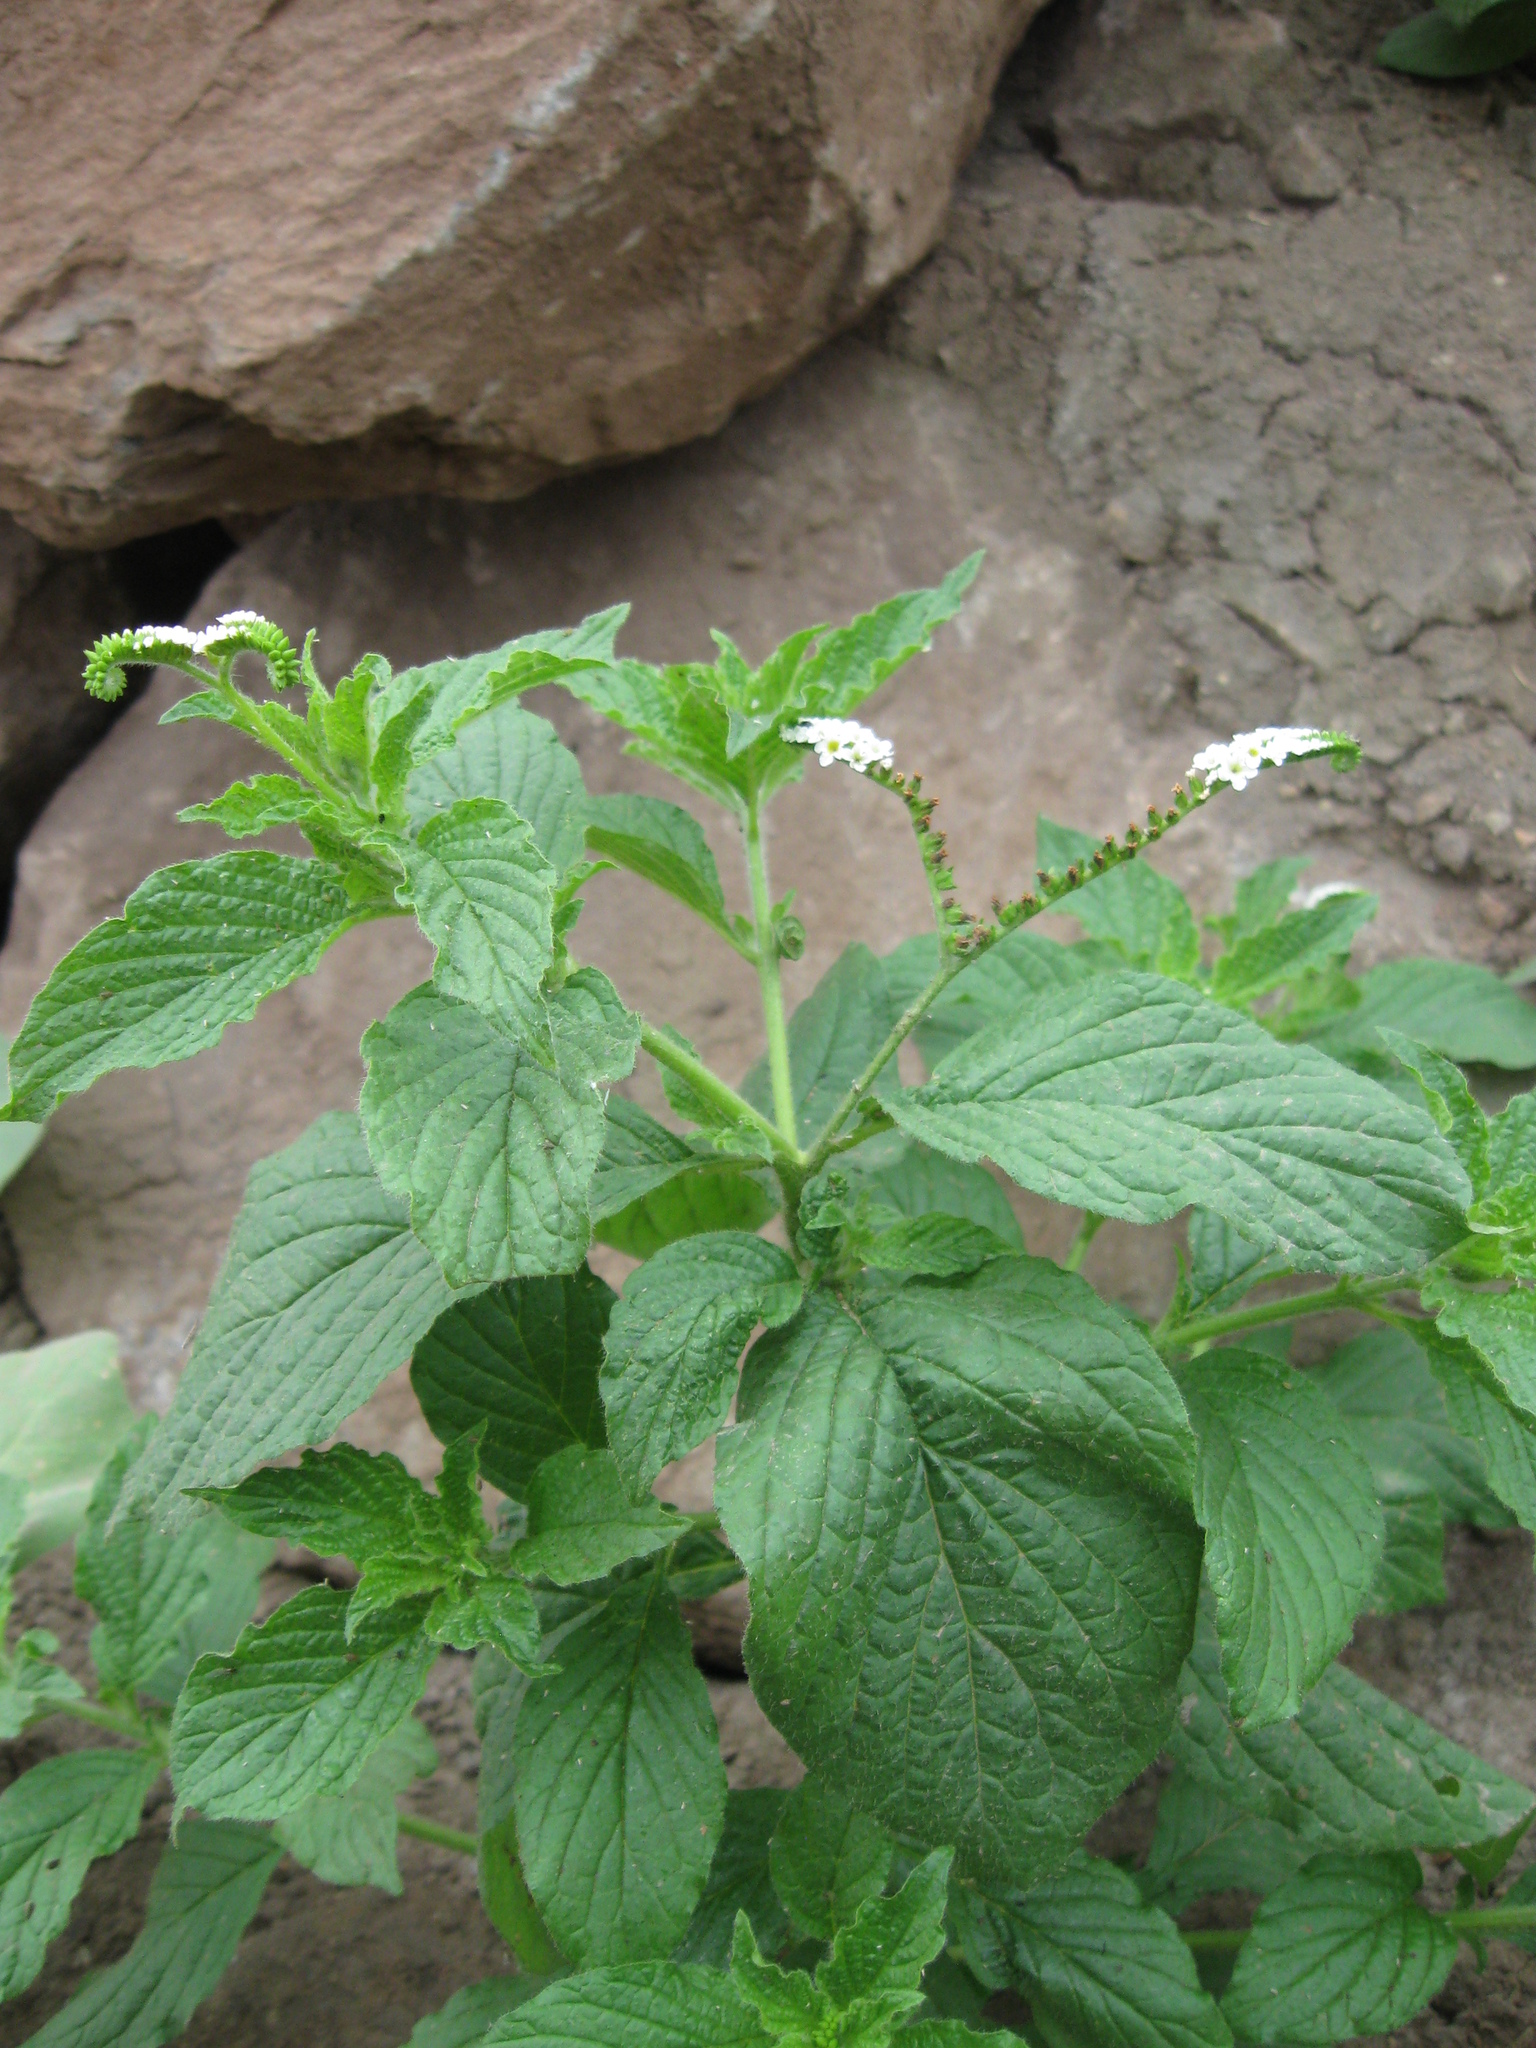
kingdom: Plantae
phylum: Tracheophyta
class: Magnoliopsida
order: Boraginales
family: Heliotropiaceae
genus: Heliotropium
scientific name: Heliotropium angiospermum
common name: Eye bright
